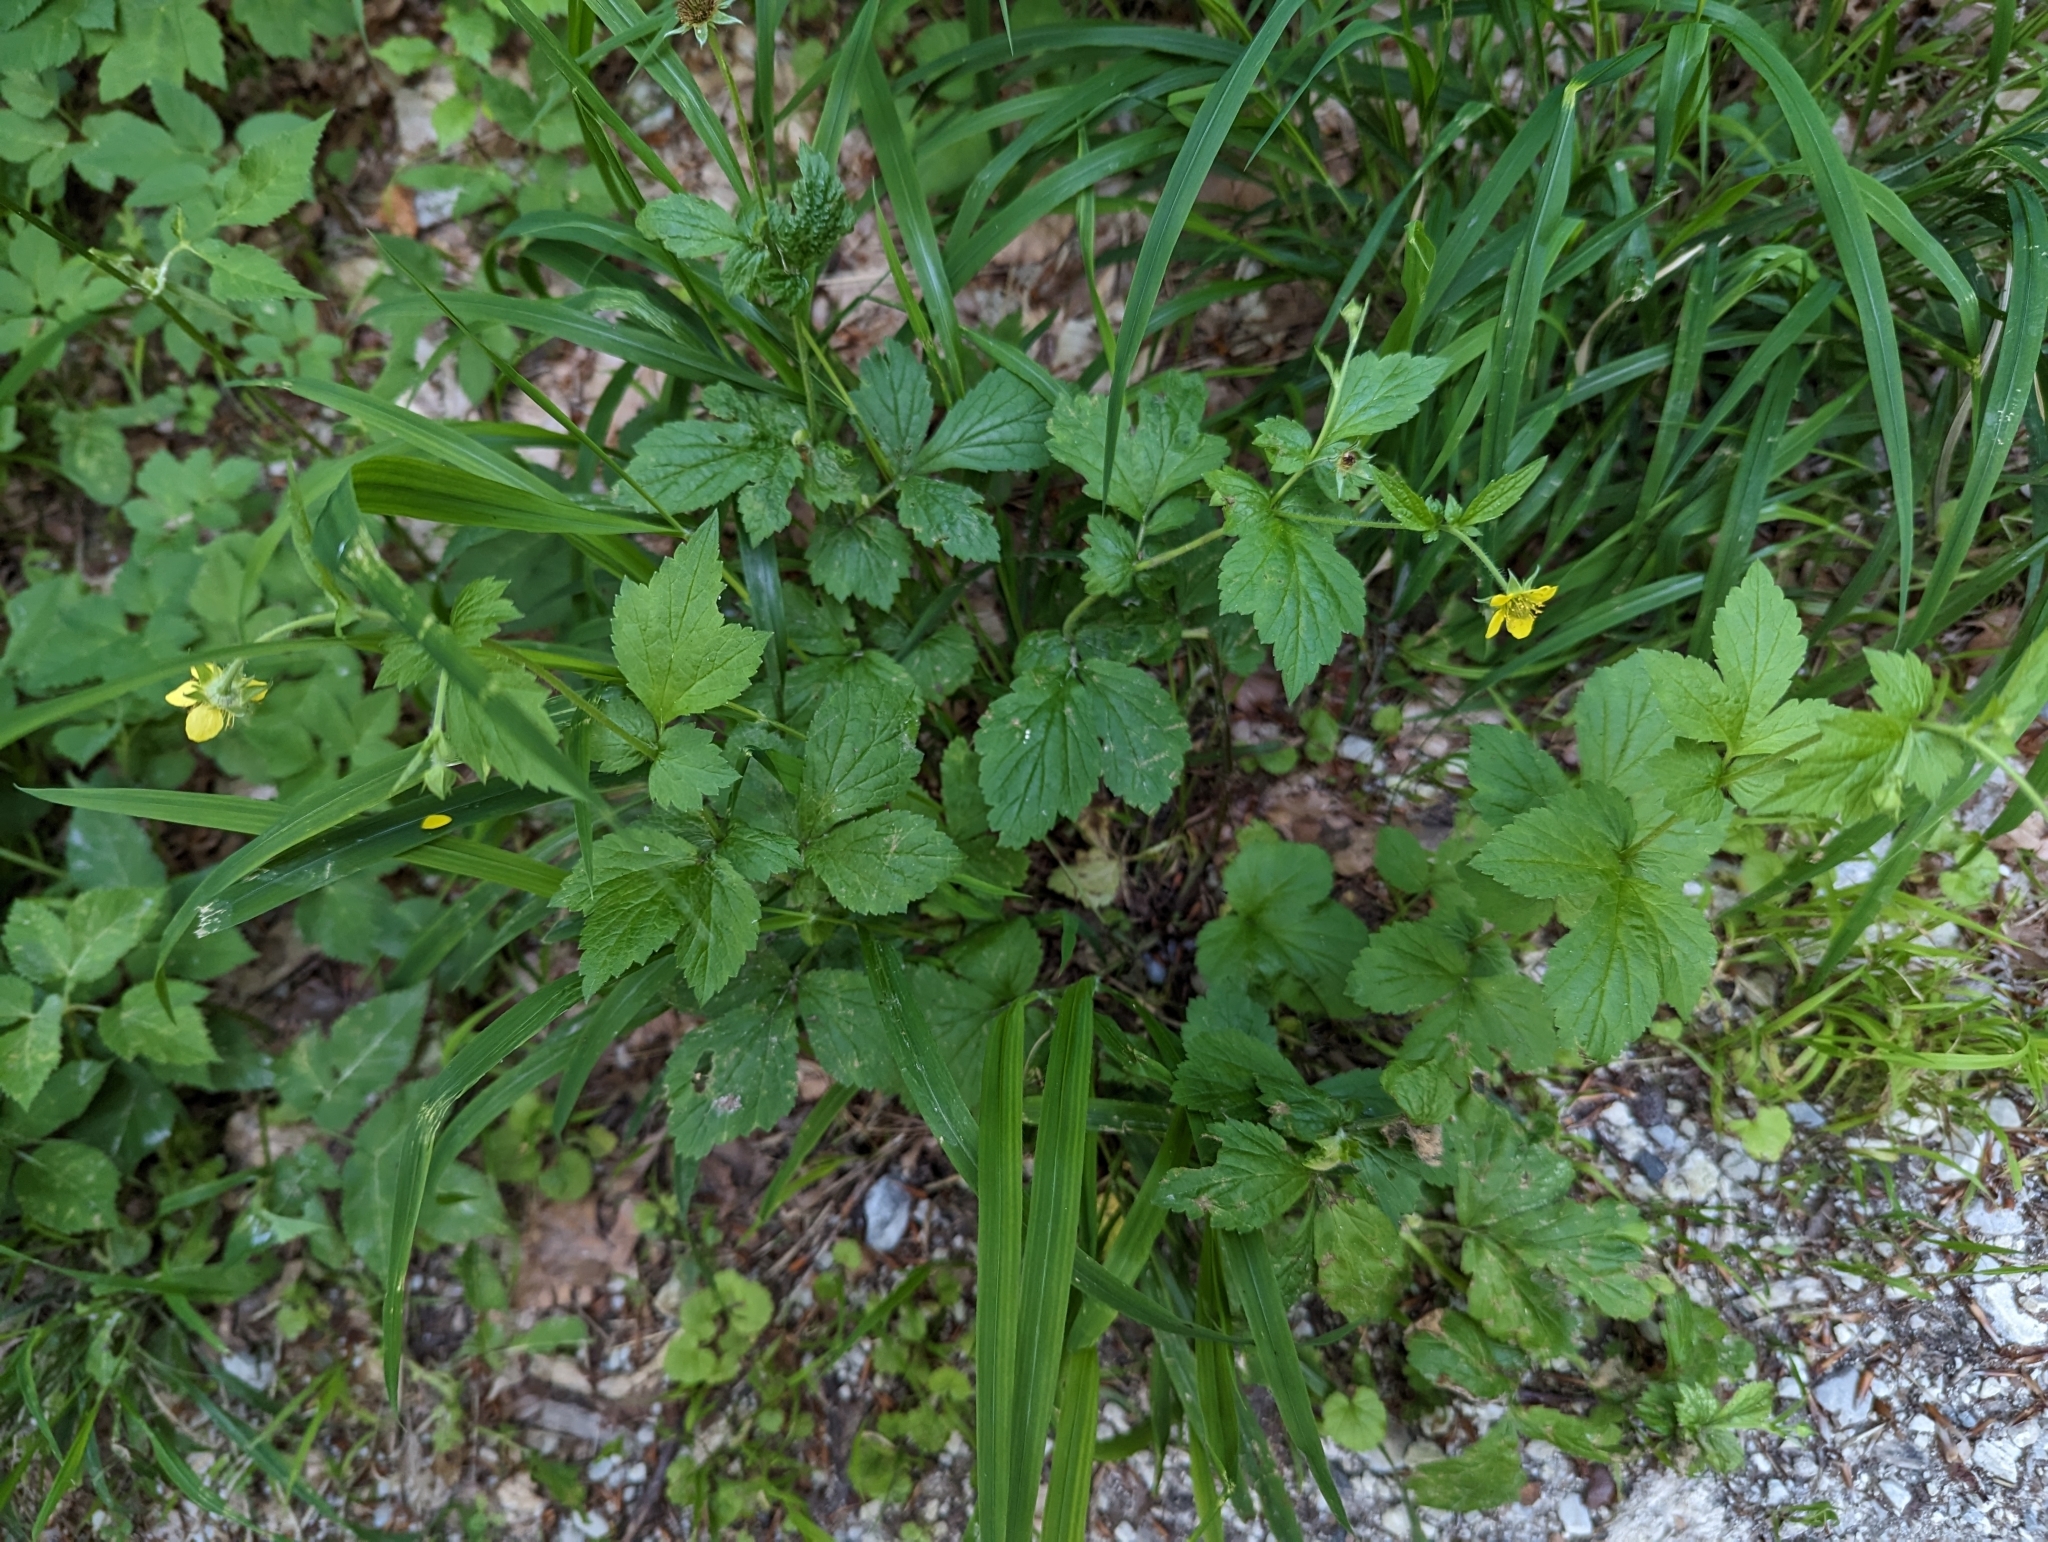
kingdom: Plantae
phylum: Tracheophyta
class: Magnoliopsida
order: Rosales
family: Rosaceae
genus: Geum
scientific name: Geum urbanum
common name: Wood avens
